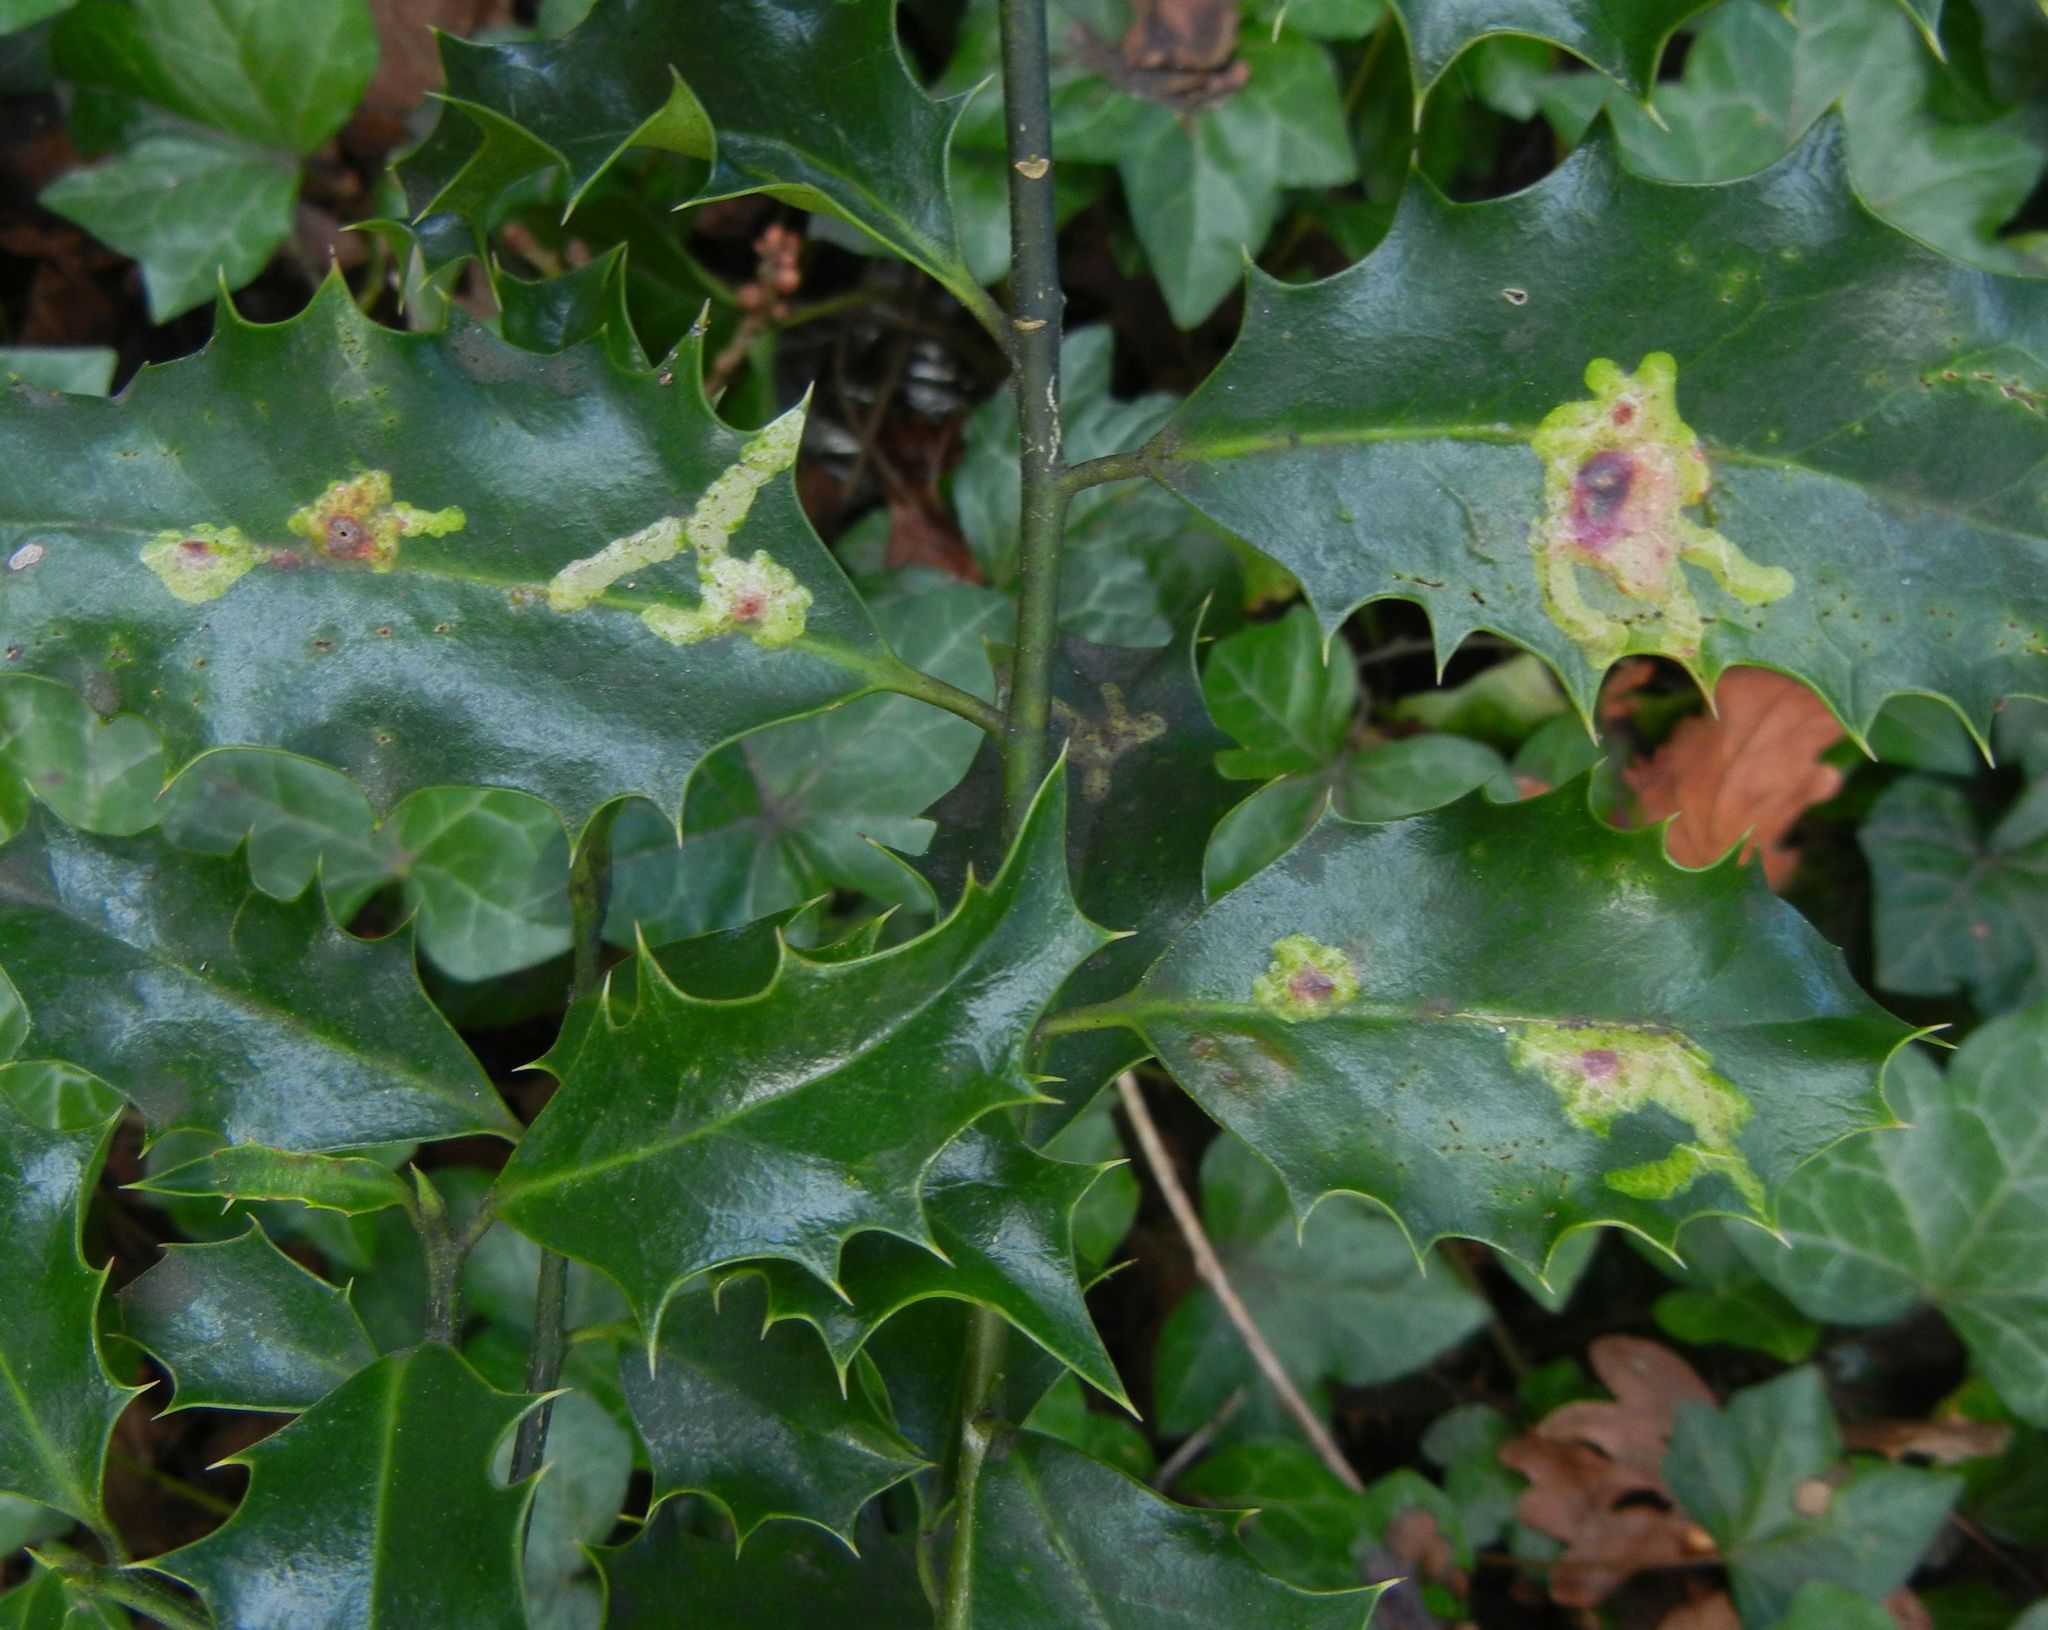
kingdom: Animalia
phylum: Arthropoda
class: Insecta
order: Diptera
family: Agromyzidae
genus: Phytomyza
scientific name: Phytomyza ilicis
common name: Holly leafminer
